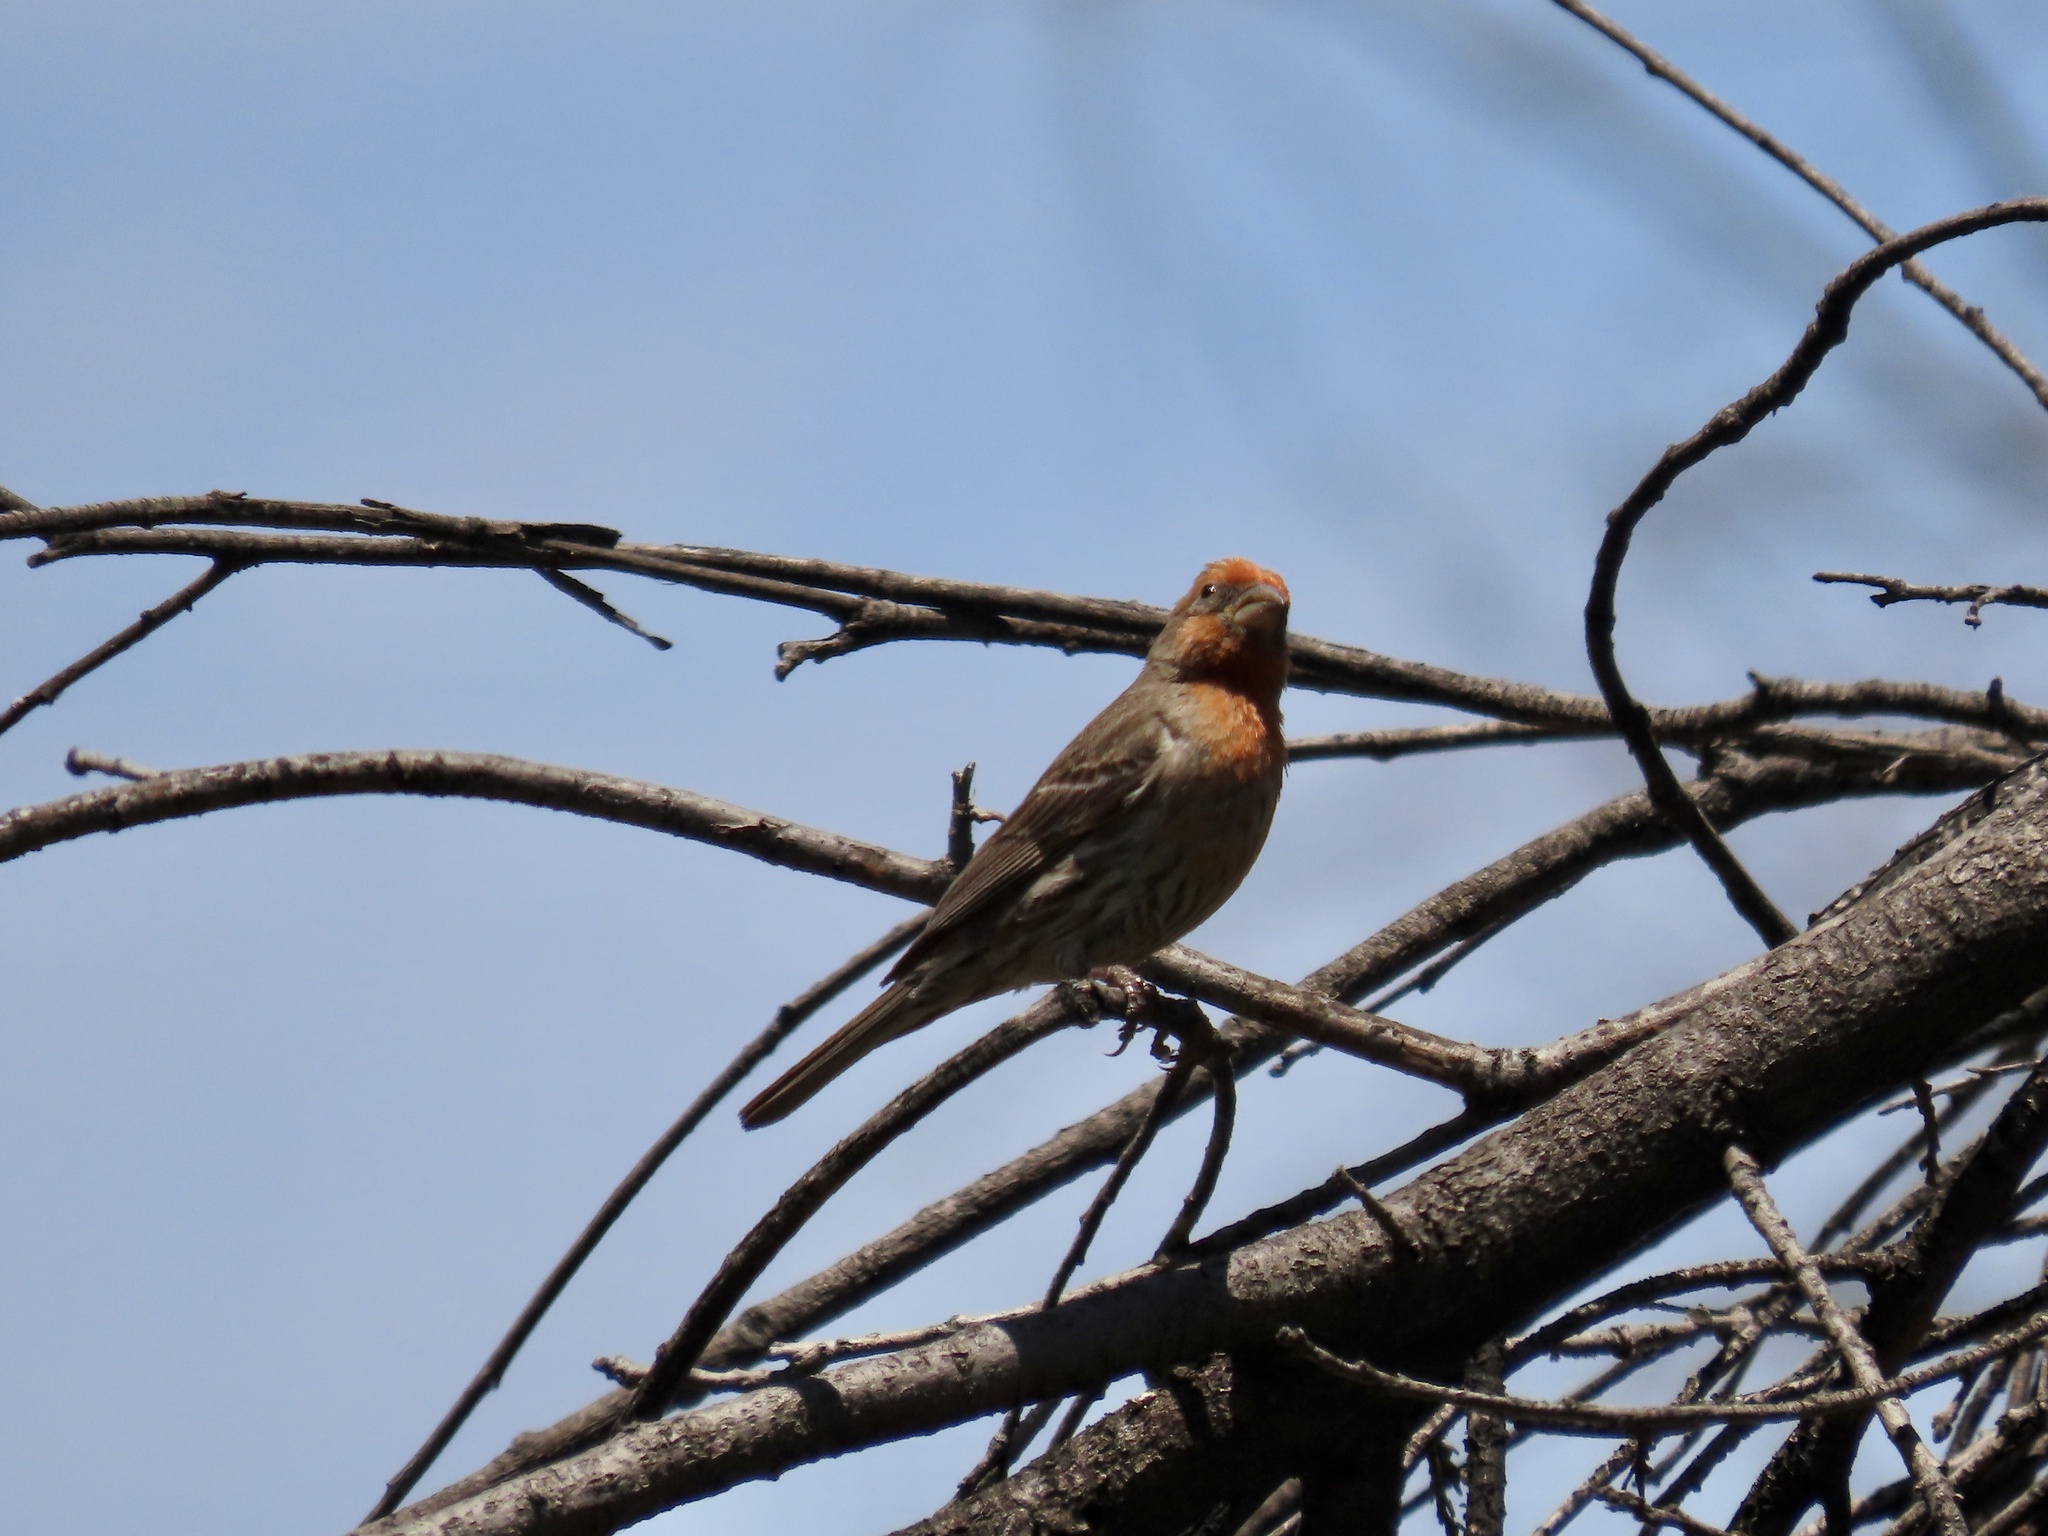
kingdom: Animalia
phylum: Chordata
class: Aves
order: Passeriformes
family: Fringillidae
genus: Haemorhous
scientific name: Haemorhous mexicanus
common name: House finch
